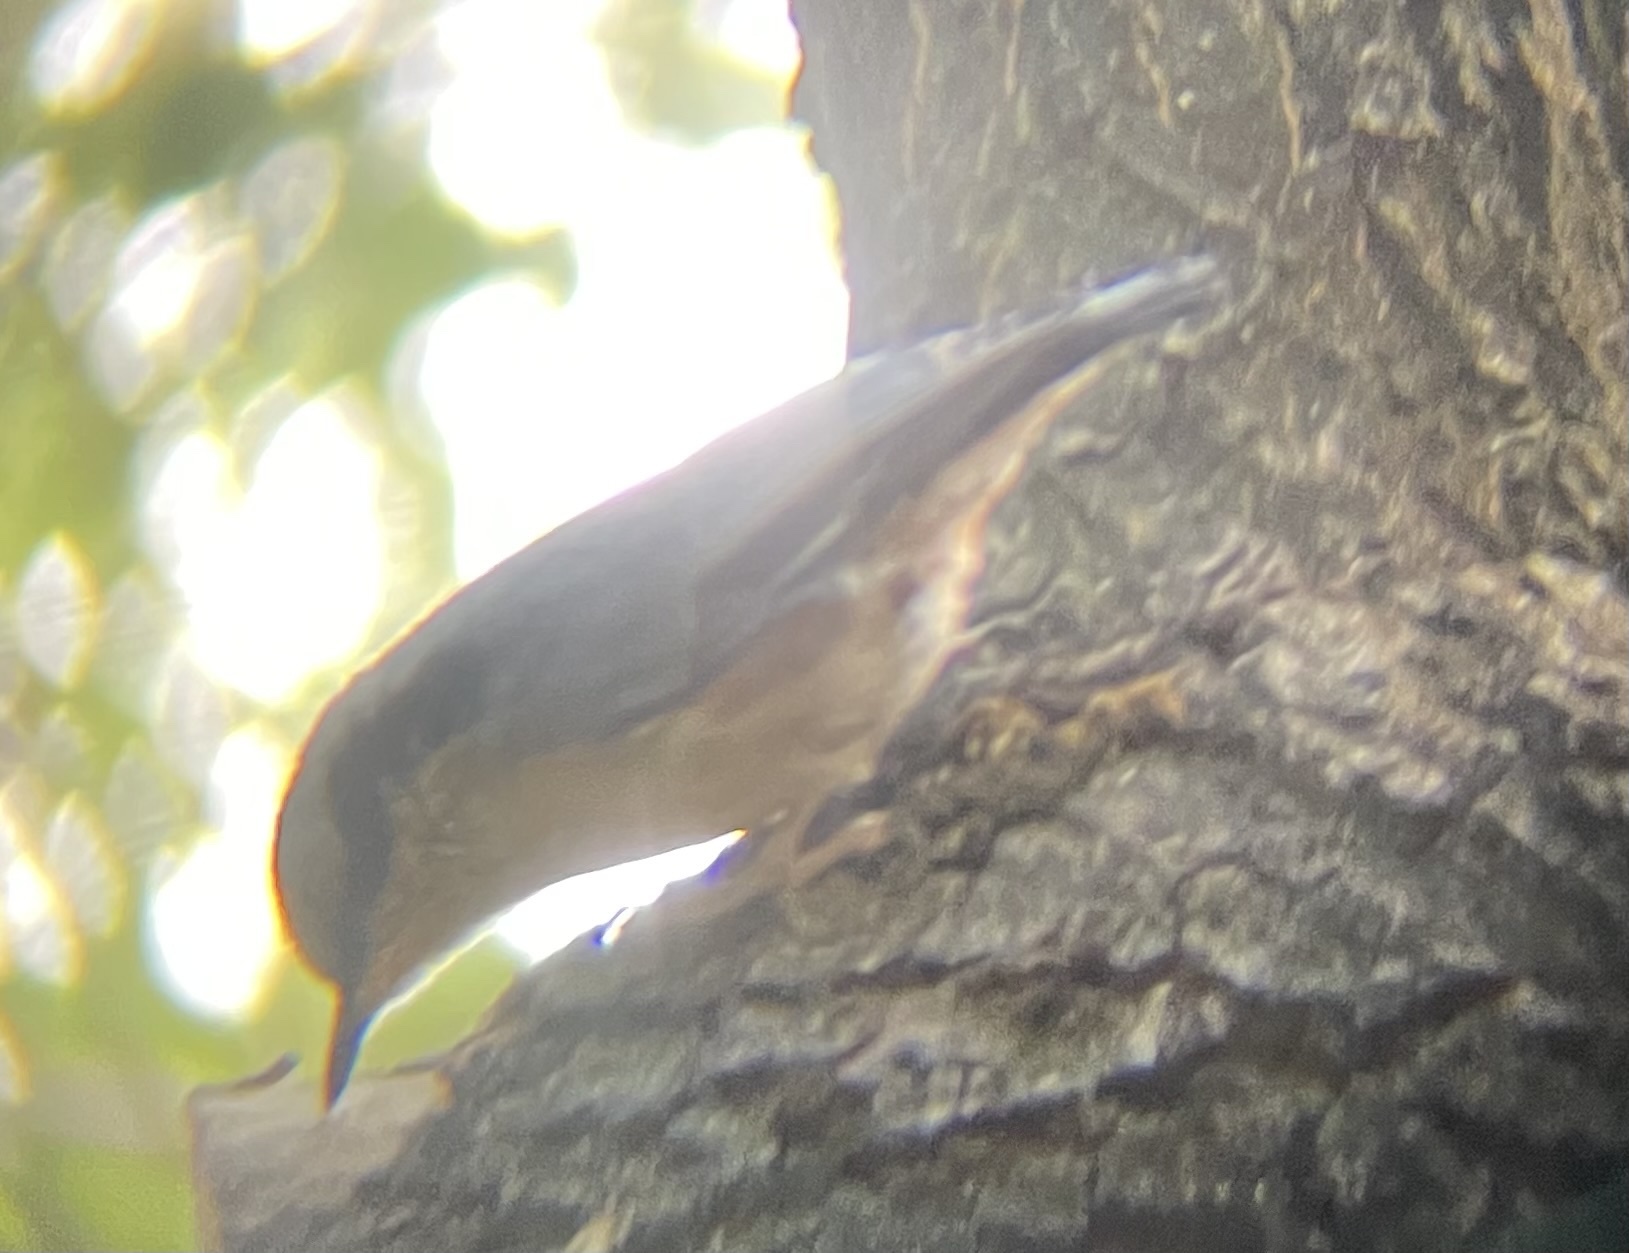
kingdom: Animalia
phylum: Chordata
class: Aves
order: Passeriformes
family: Sittidae
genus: Sitta
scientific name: Sitta nagaensis
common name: Chestnut-vented nuthatch
